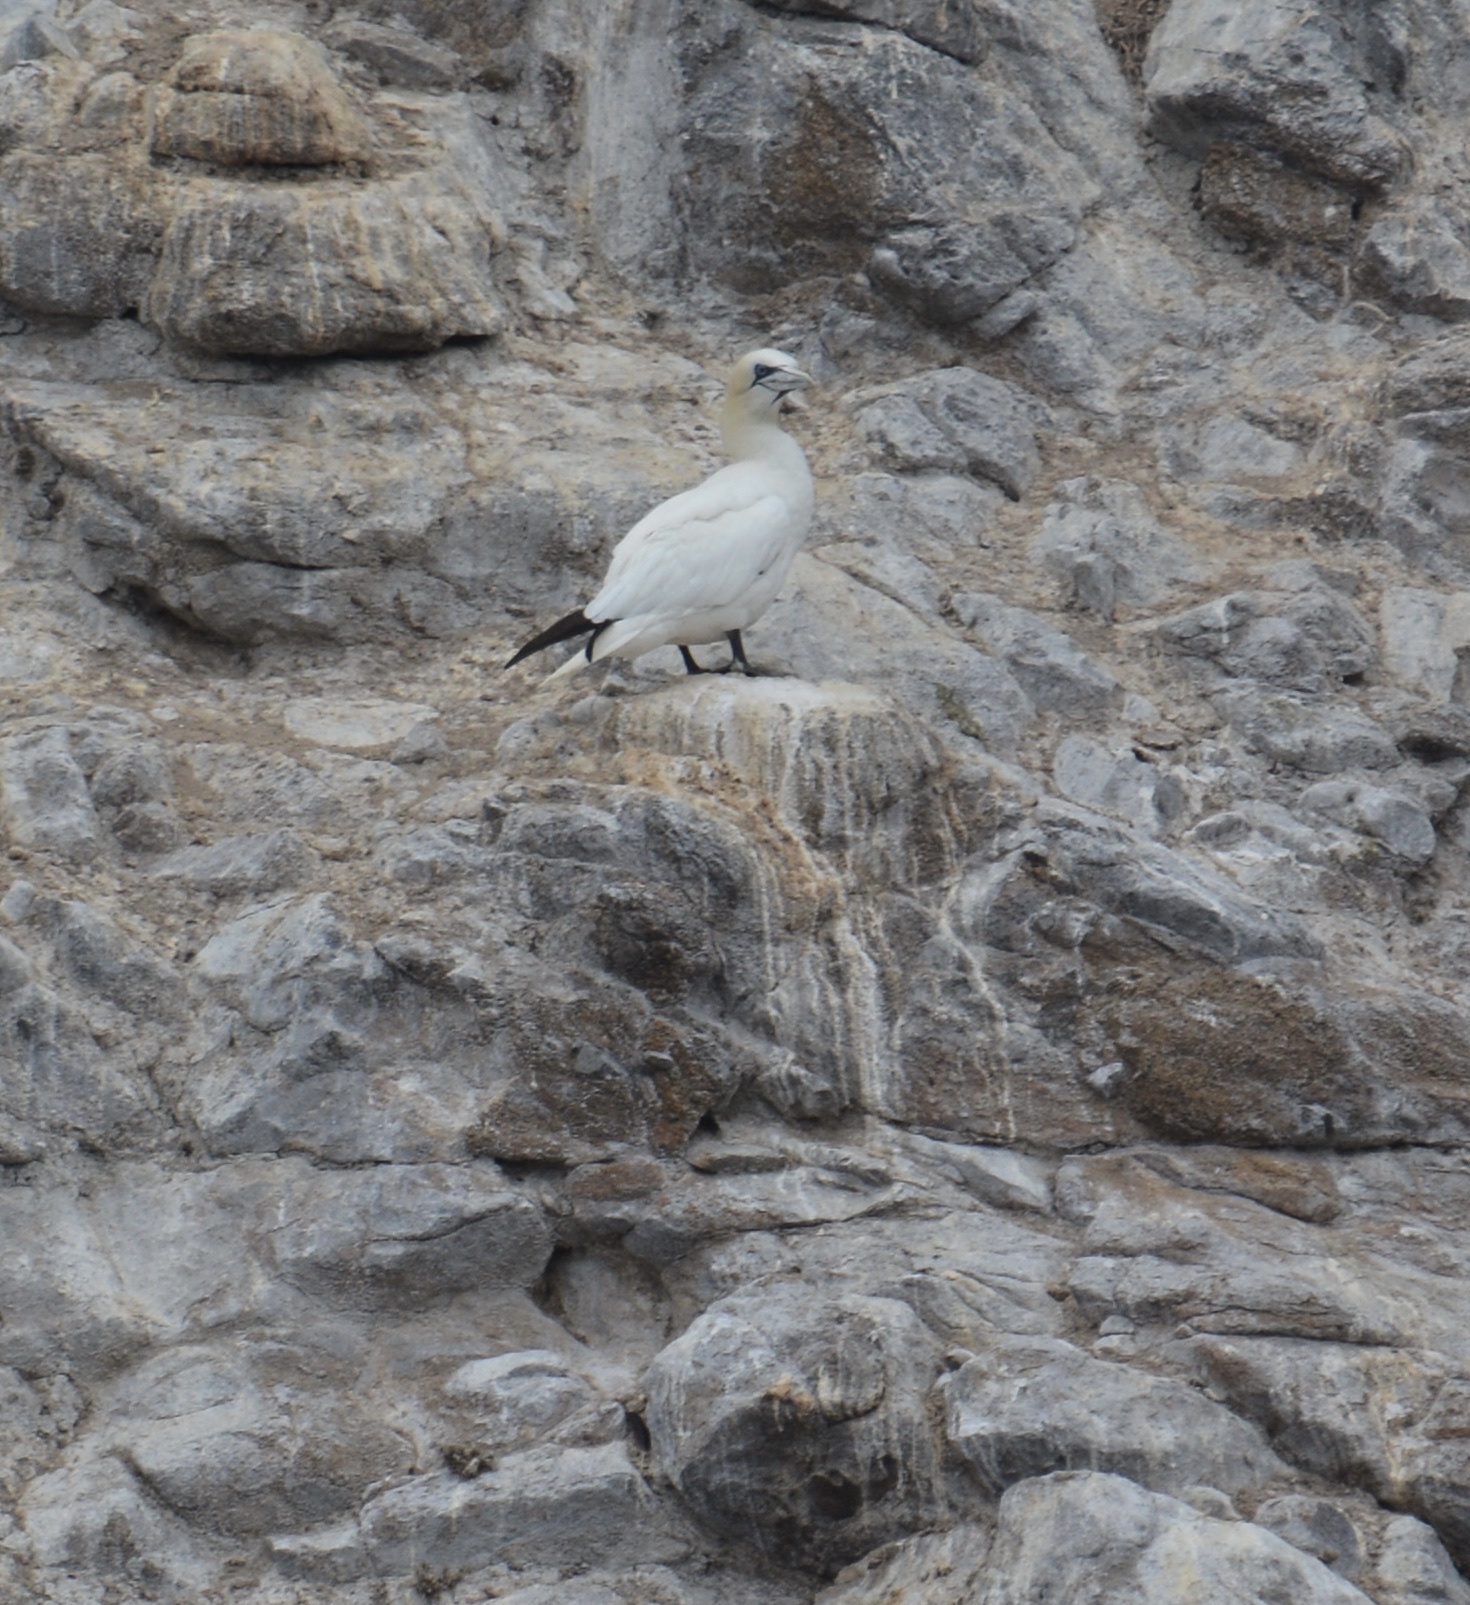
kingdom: Animalia
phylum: Chordata
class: Aves
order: Suliformes
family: Sulidae
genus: Morus
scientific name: Morus bassanus
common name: Northern gannet
